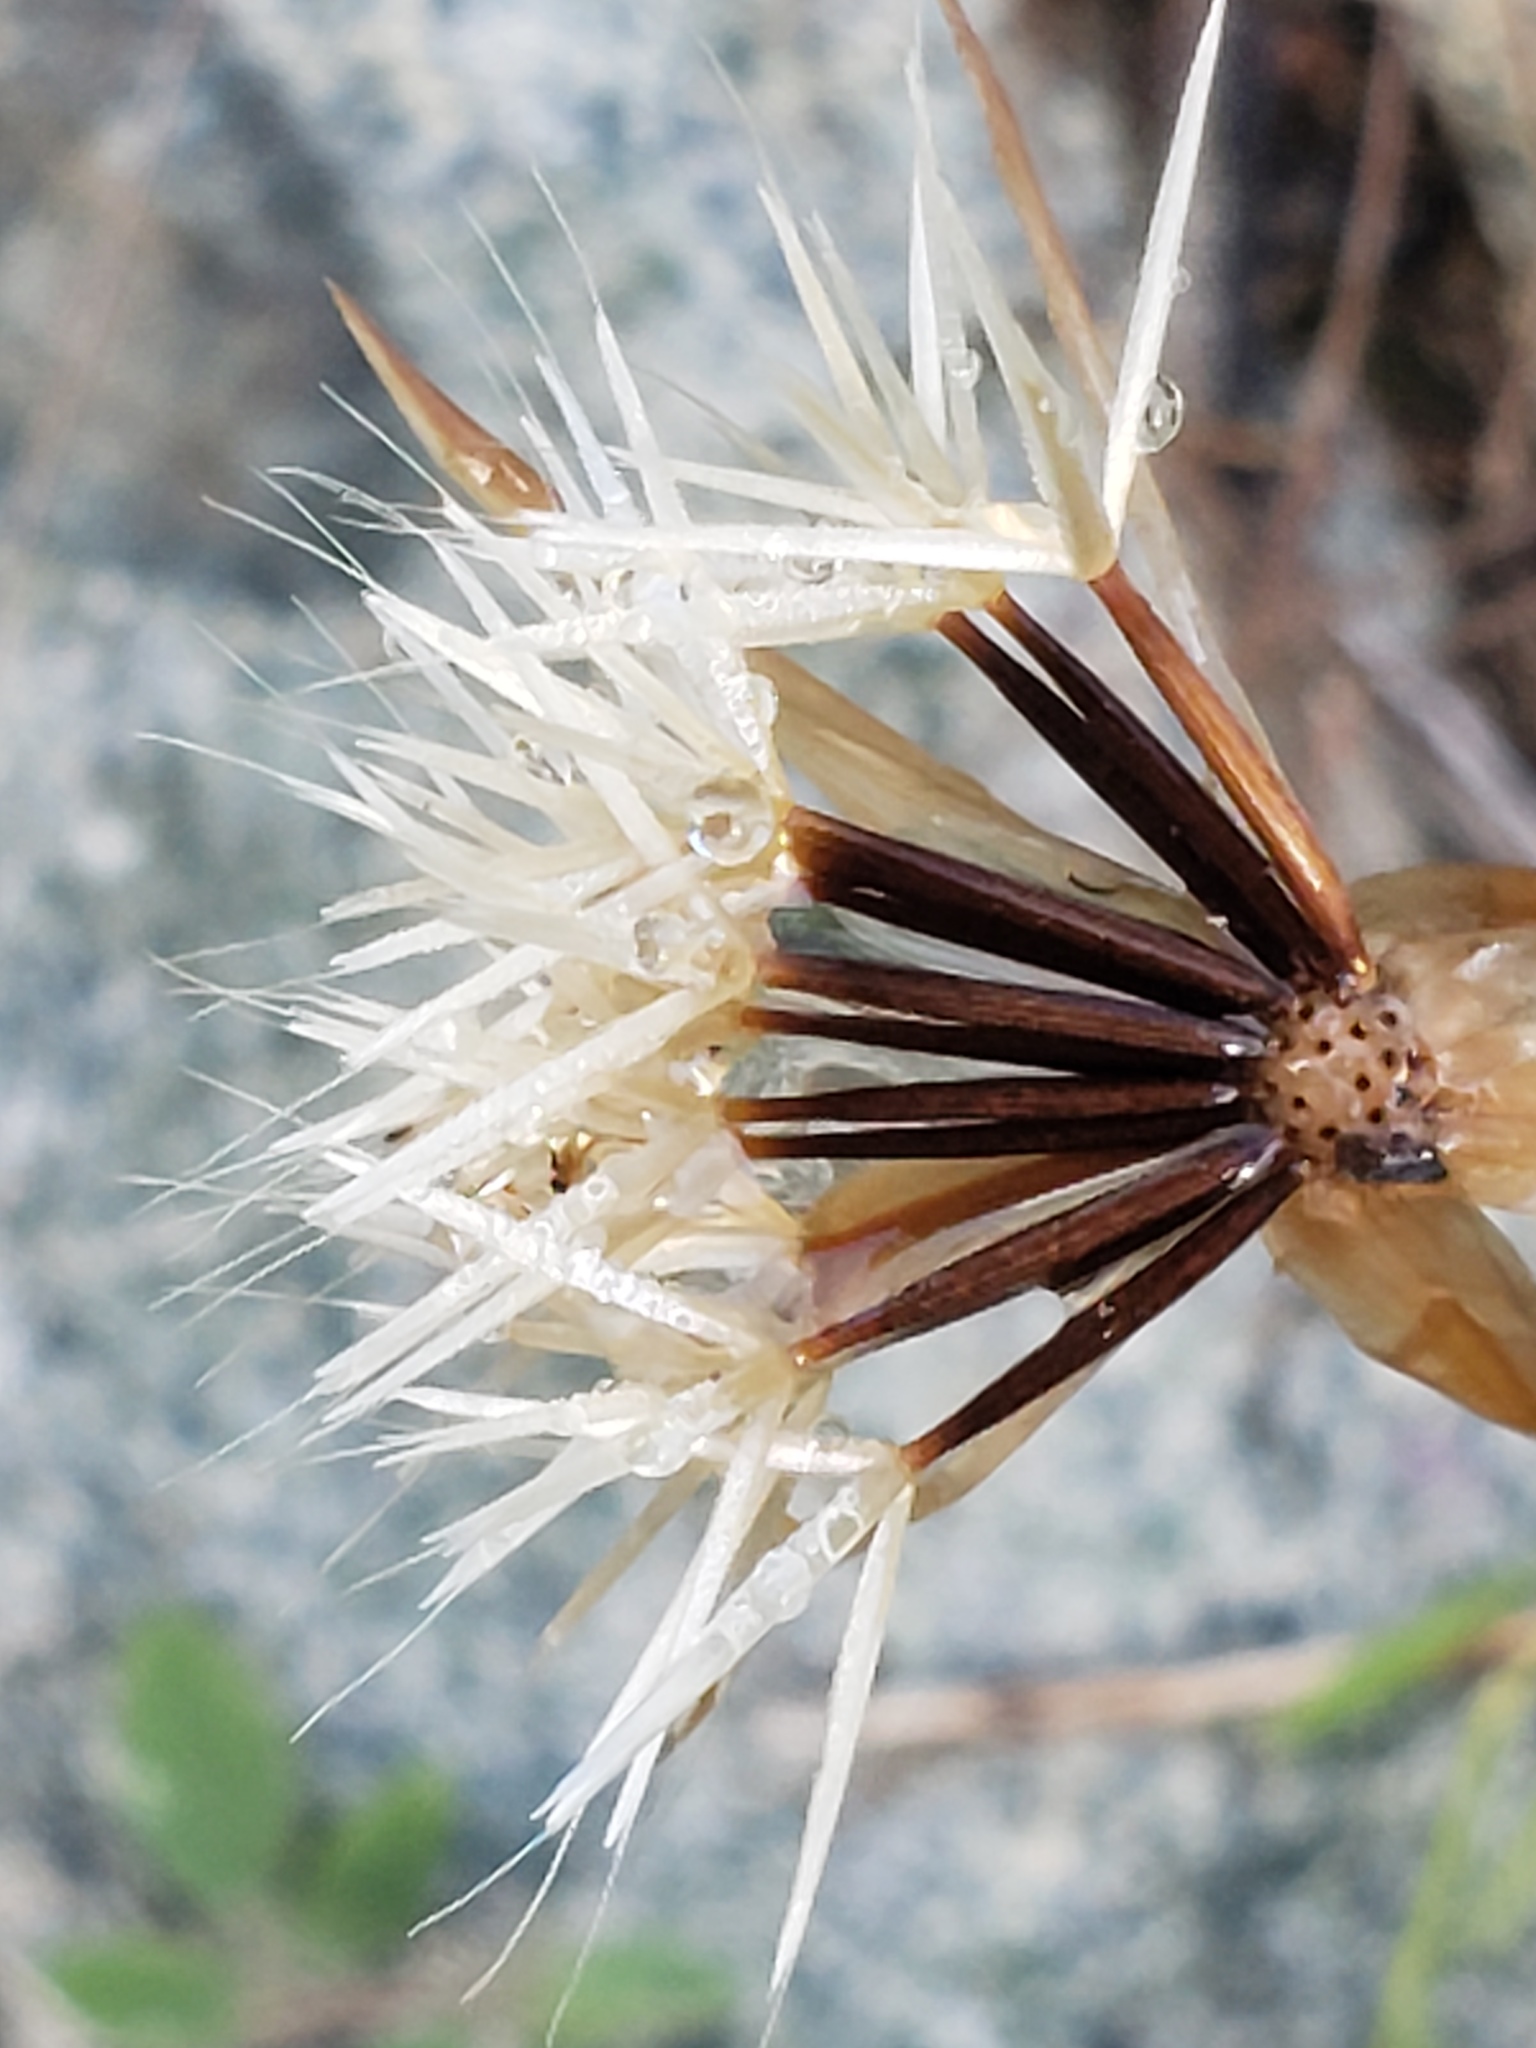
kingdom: Plantae
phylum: Tracheophyta
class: Magnoliopsida
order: Asterales
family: Asteraceae
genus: Microseris
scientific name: Microseris lindleyi
